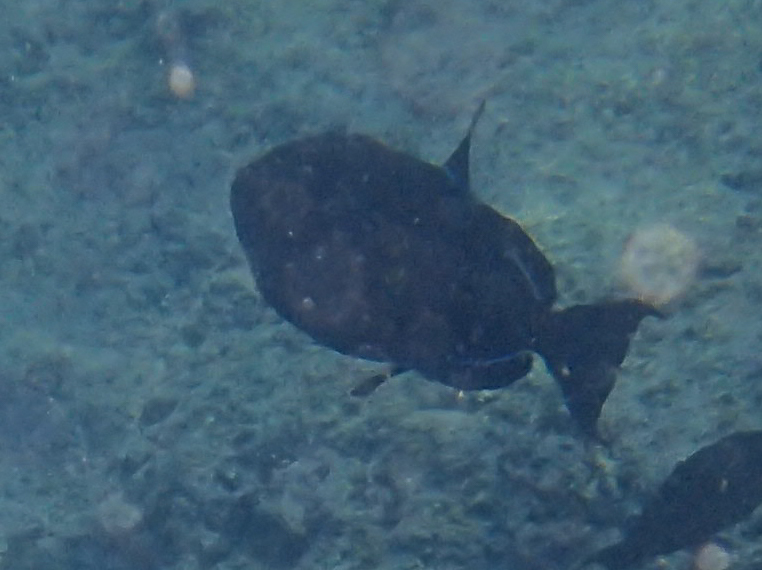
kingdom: Animalia
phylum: Chordata
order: Tetraodontiformes
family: Balistidae
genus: Melichthys
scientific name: Melichthys niger
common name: Black durgon
